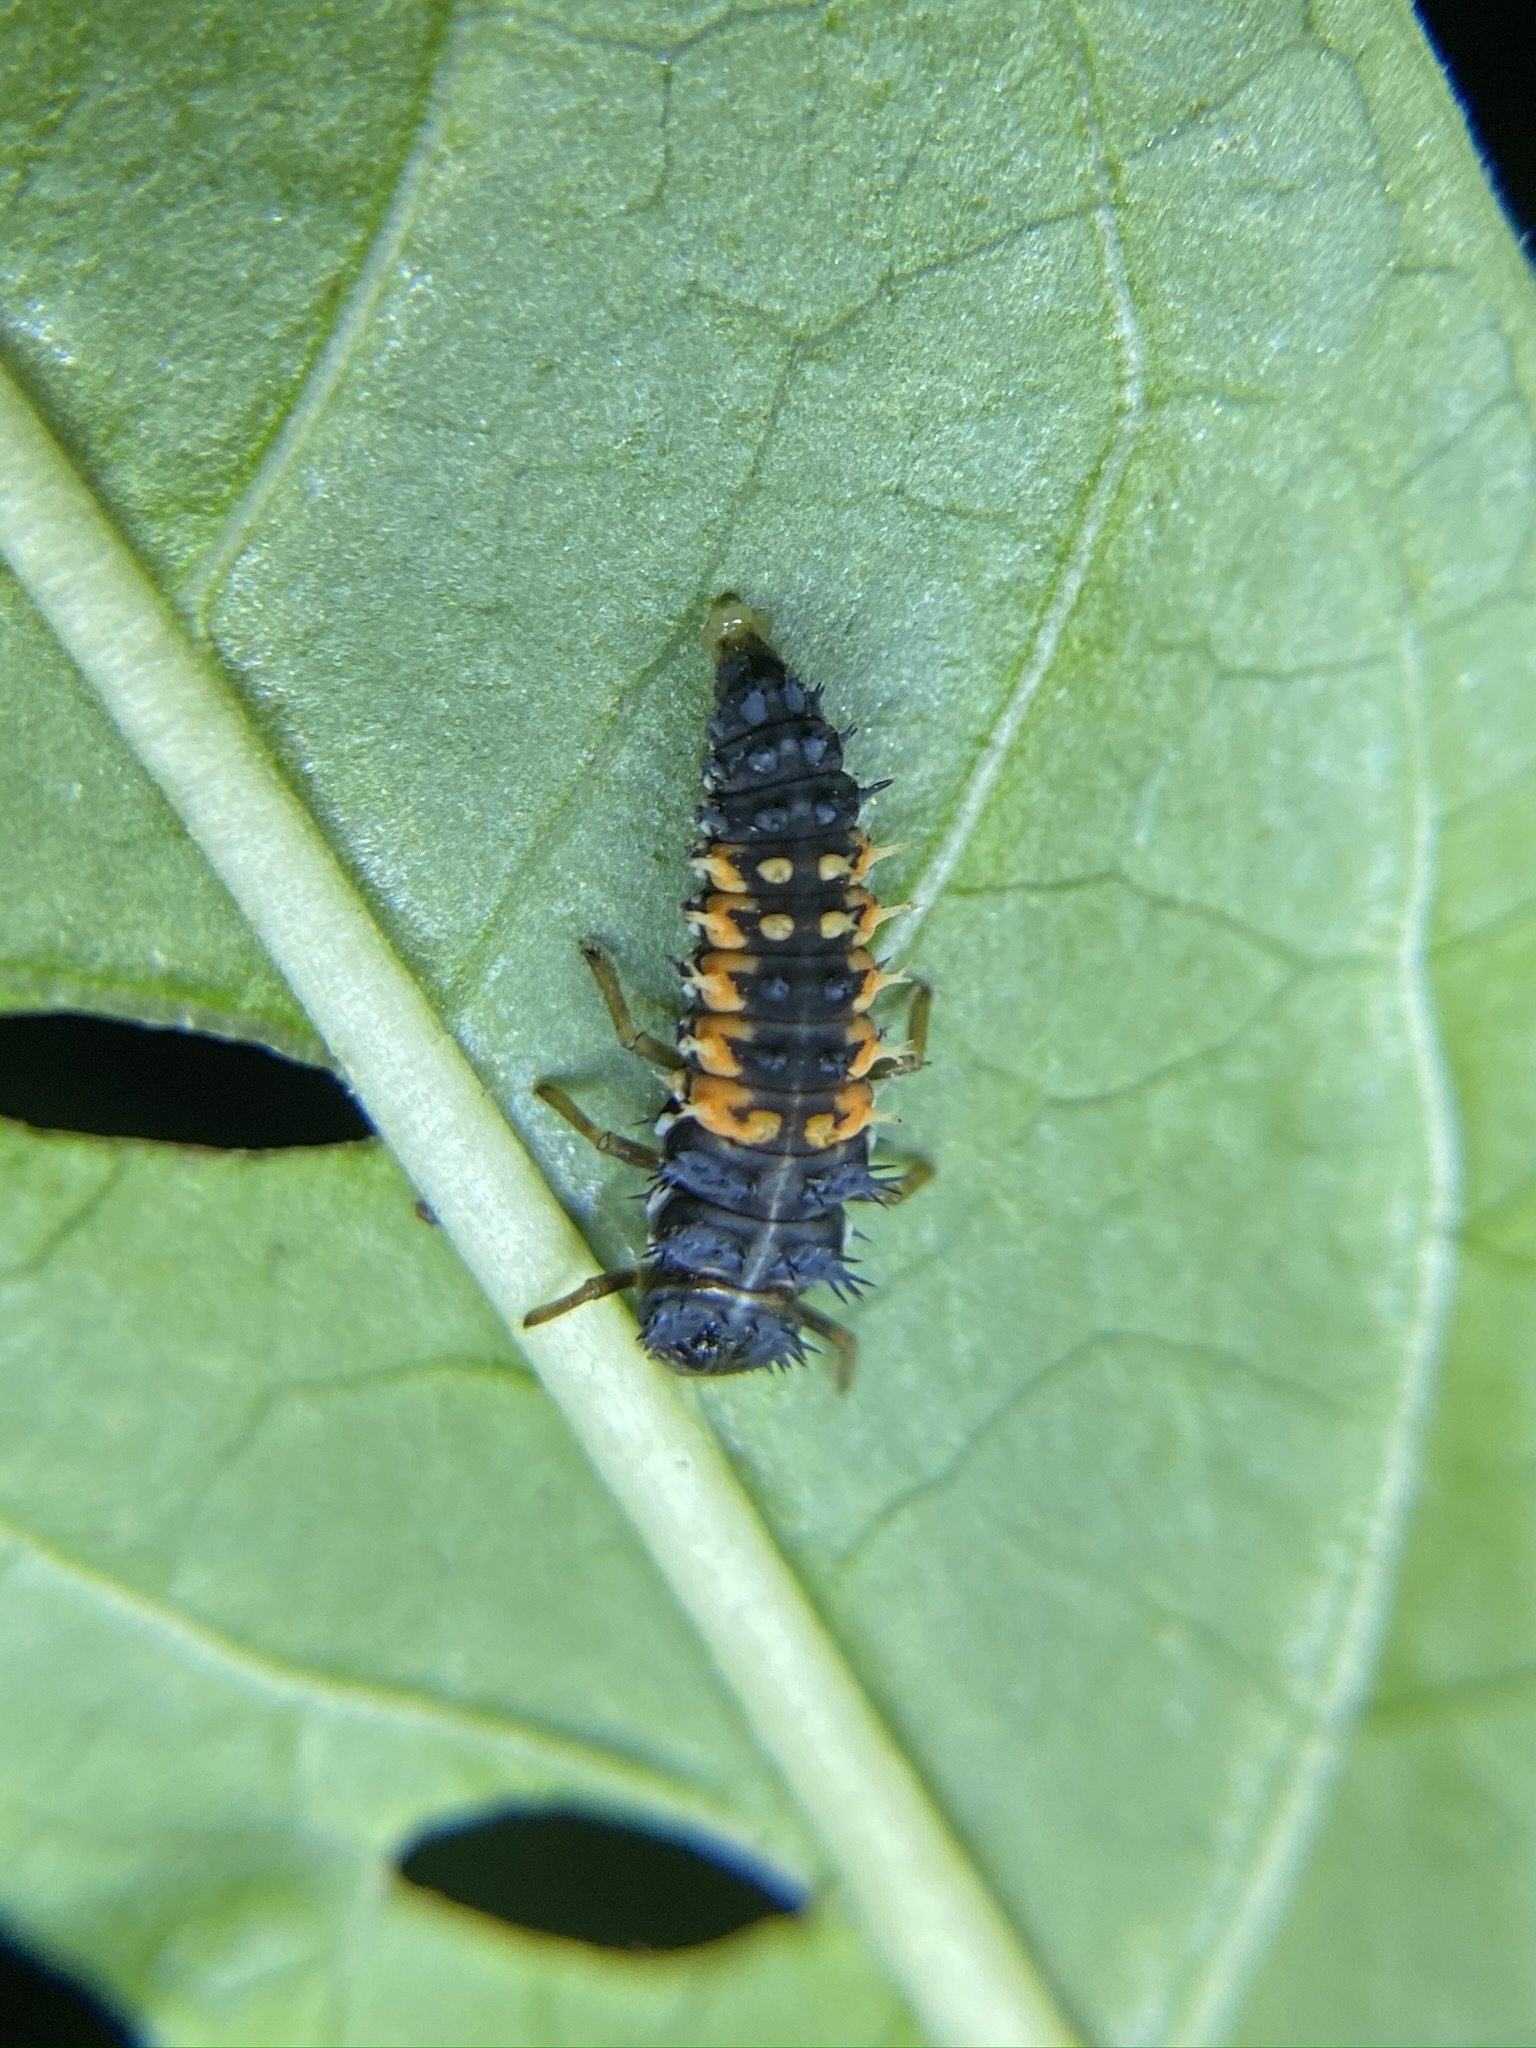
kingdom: Animalia
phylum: Arthropoda
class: Insecta
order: Coleoptera
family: Coccinellidae
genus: Harmonia
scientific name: Harmonia axyridis
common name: Harlequin ladybird
